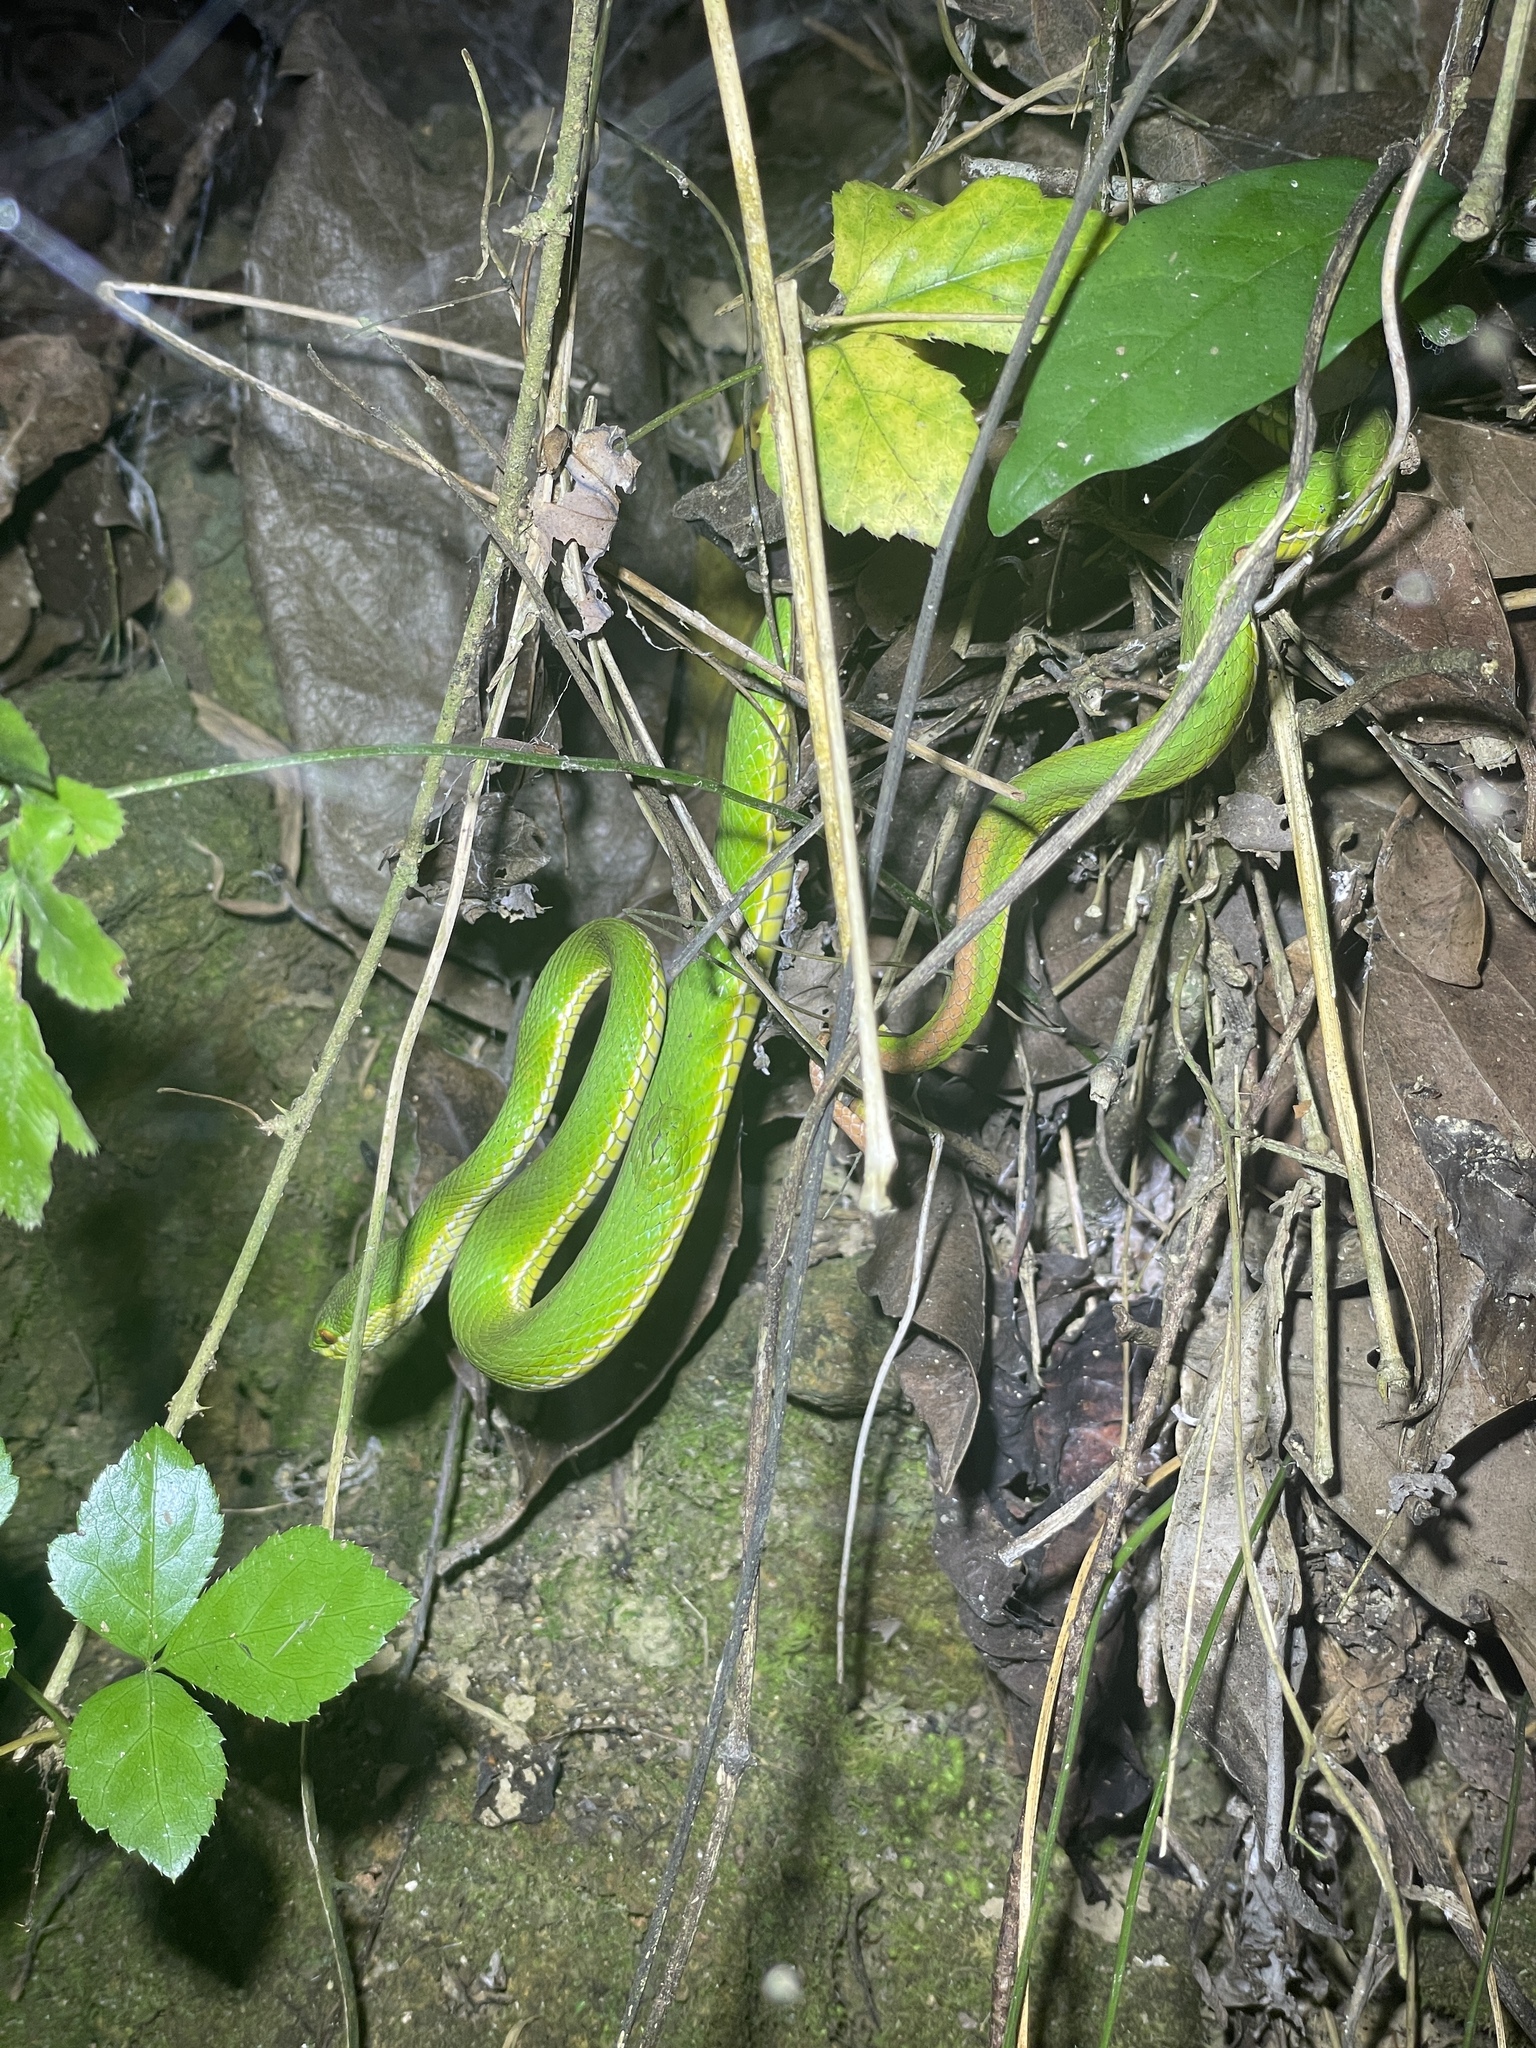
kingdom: Animalia
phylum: Chordata
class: Squamata
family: Viperidae
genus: Trimeresurus
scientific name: Trimeresurus albolabris
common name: White-lipped pitviper
